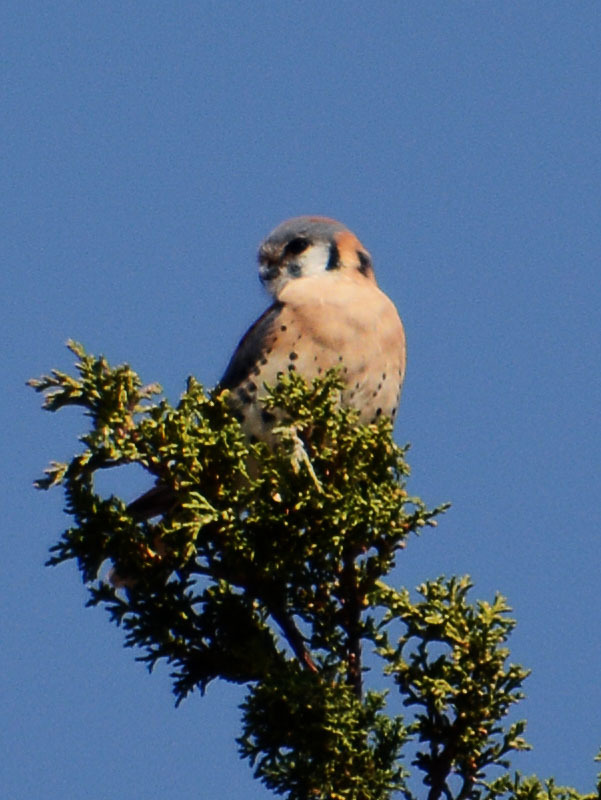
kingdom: Animalia
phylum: Chordata
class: Aves
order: Falconiformes
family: Falconidae
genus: Falco
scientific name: Falco sparverius
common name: American kestrel
